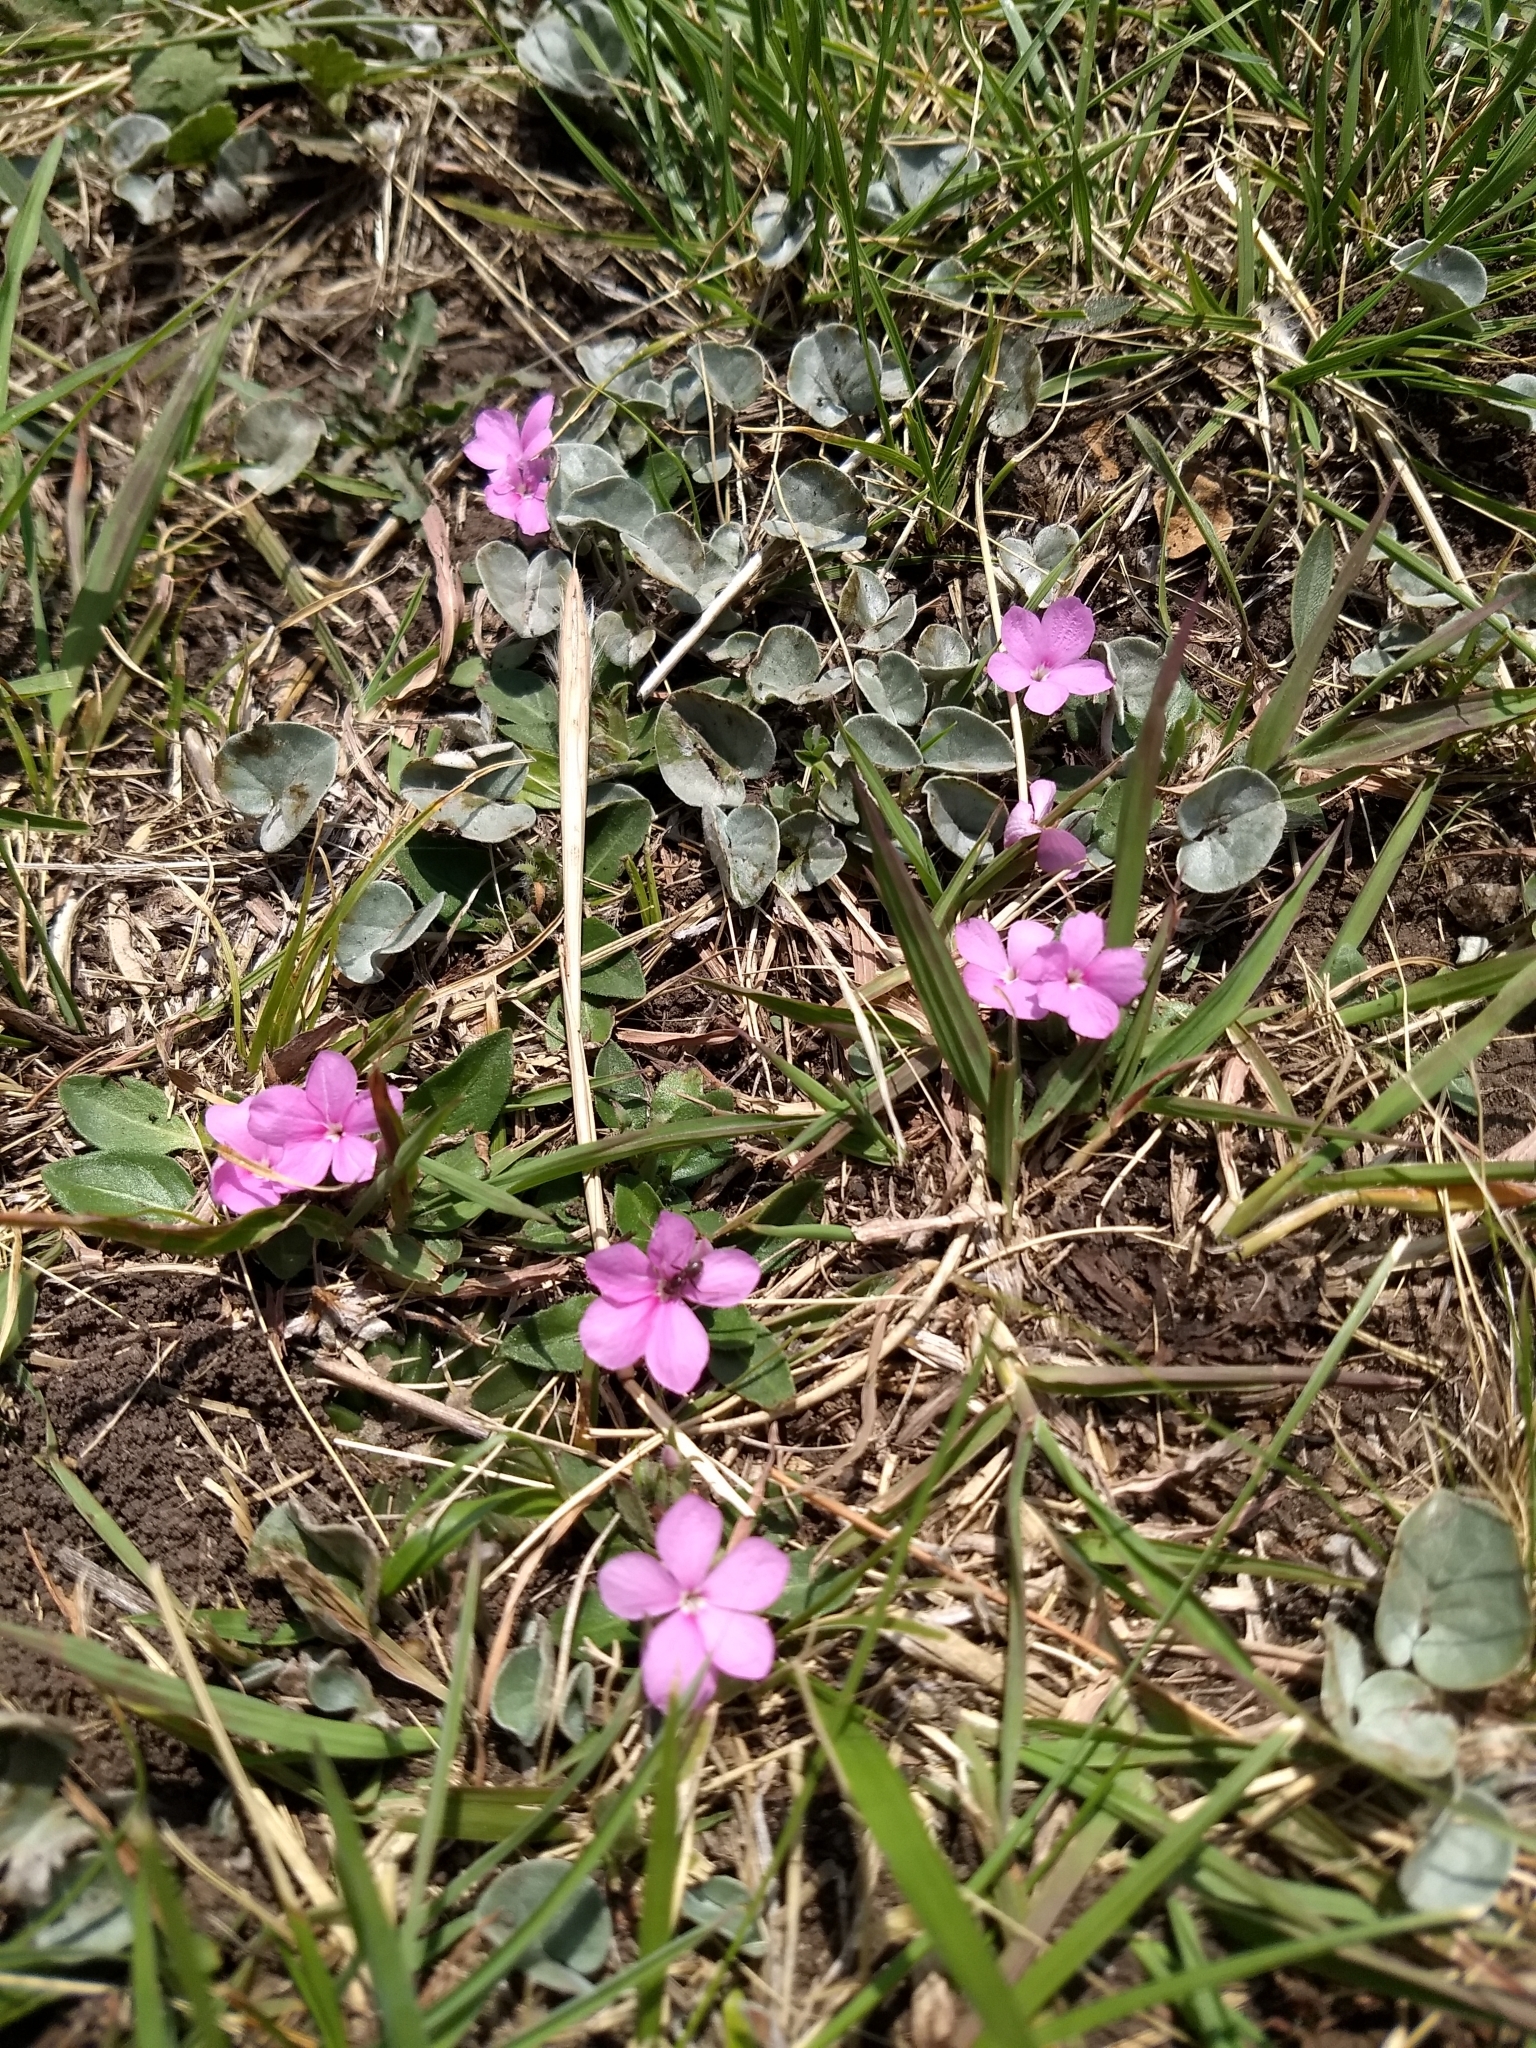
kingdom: Plantae
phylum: Tracheophyta
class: Magnoliopsida
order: Lamiales
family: Acanthaceae
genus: Stenandrium
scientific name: Stenandrium dulce
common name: Pinklet
